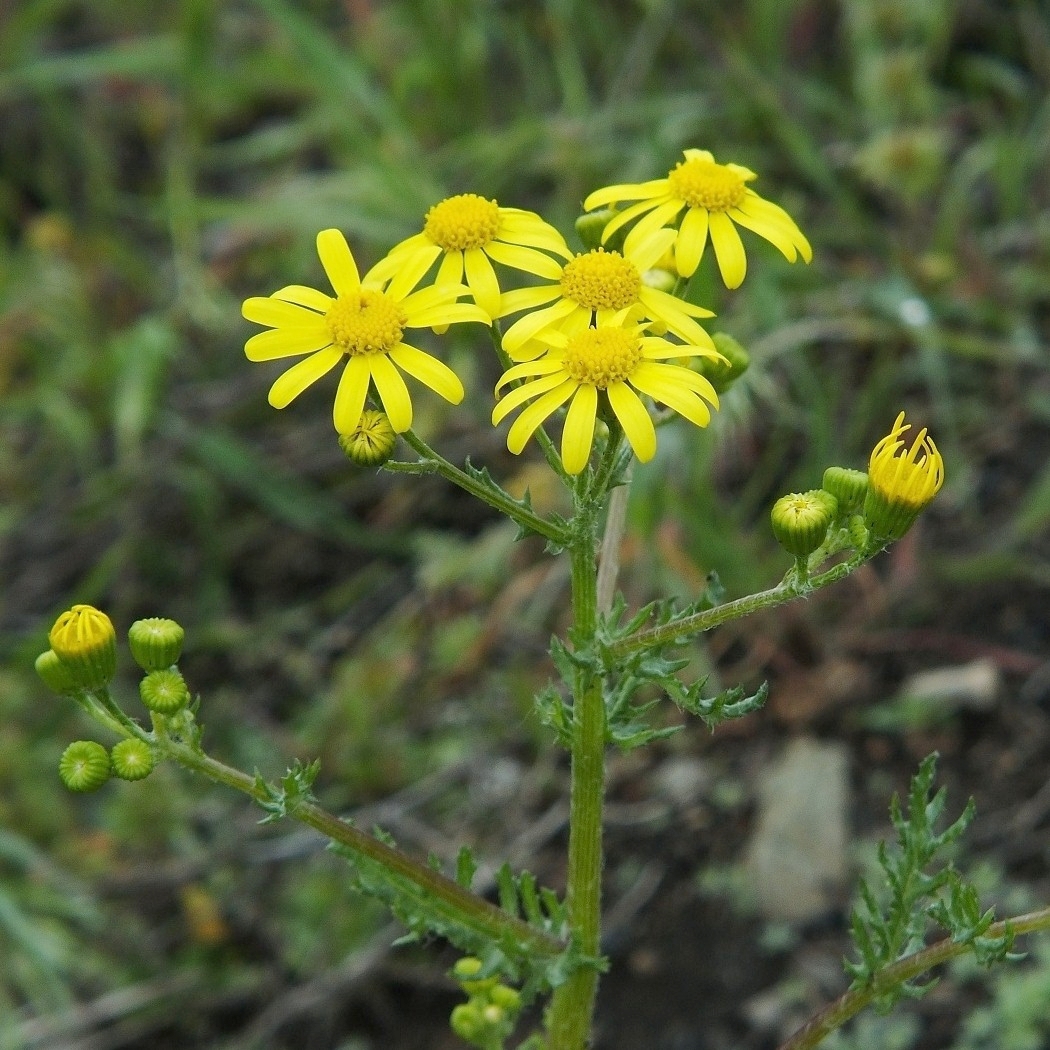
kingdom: Plantae
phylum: Tracheophyta
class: Magnoliopsida
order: Asterales
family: Asteraceae
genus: Senecio
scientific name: Senecio vernalis
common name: Eastern groundsel
